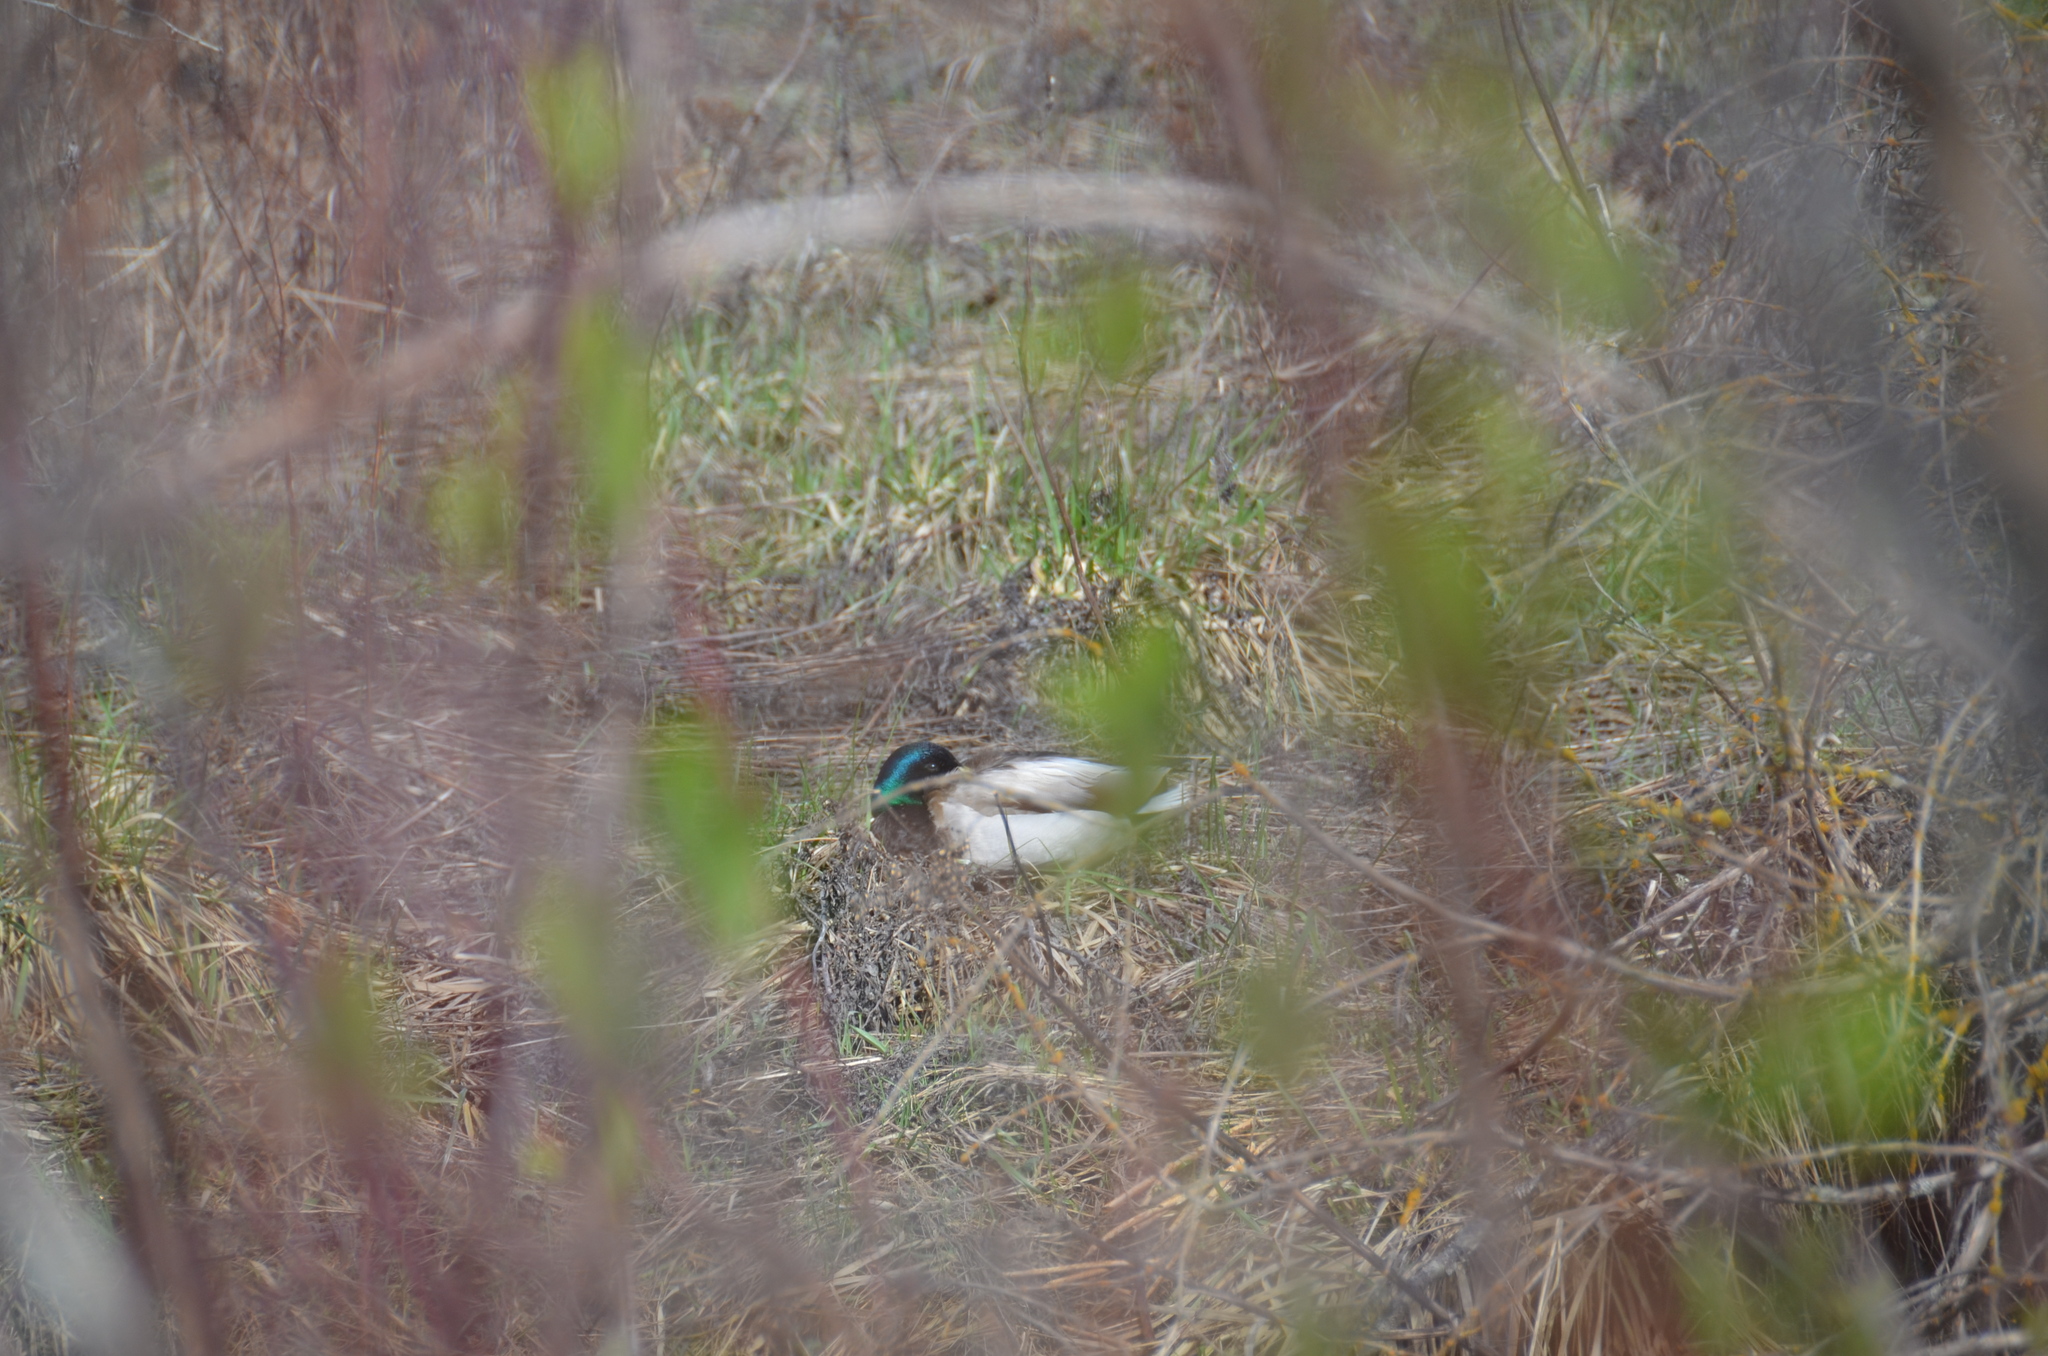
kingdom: Animalia
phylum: Chordata
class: Aves
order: Anseriformes
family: Anatidae
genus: Anas
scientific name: Anas platyrhynchos
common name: Mallard
